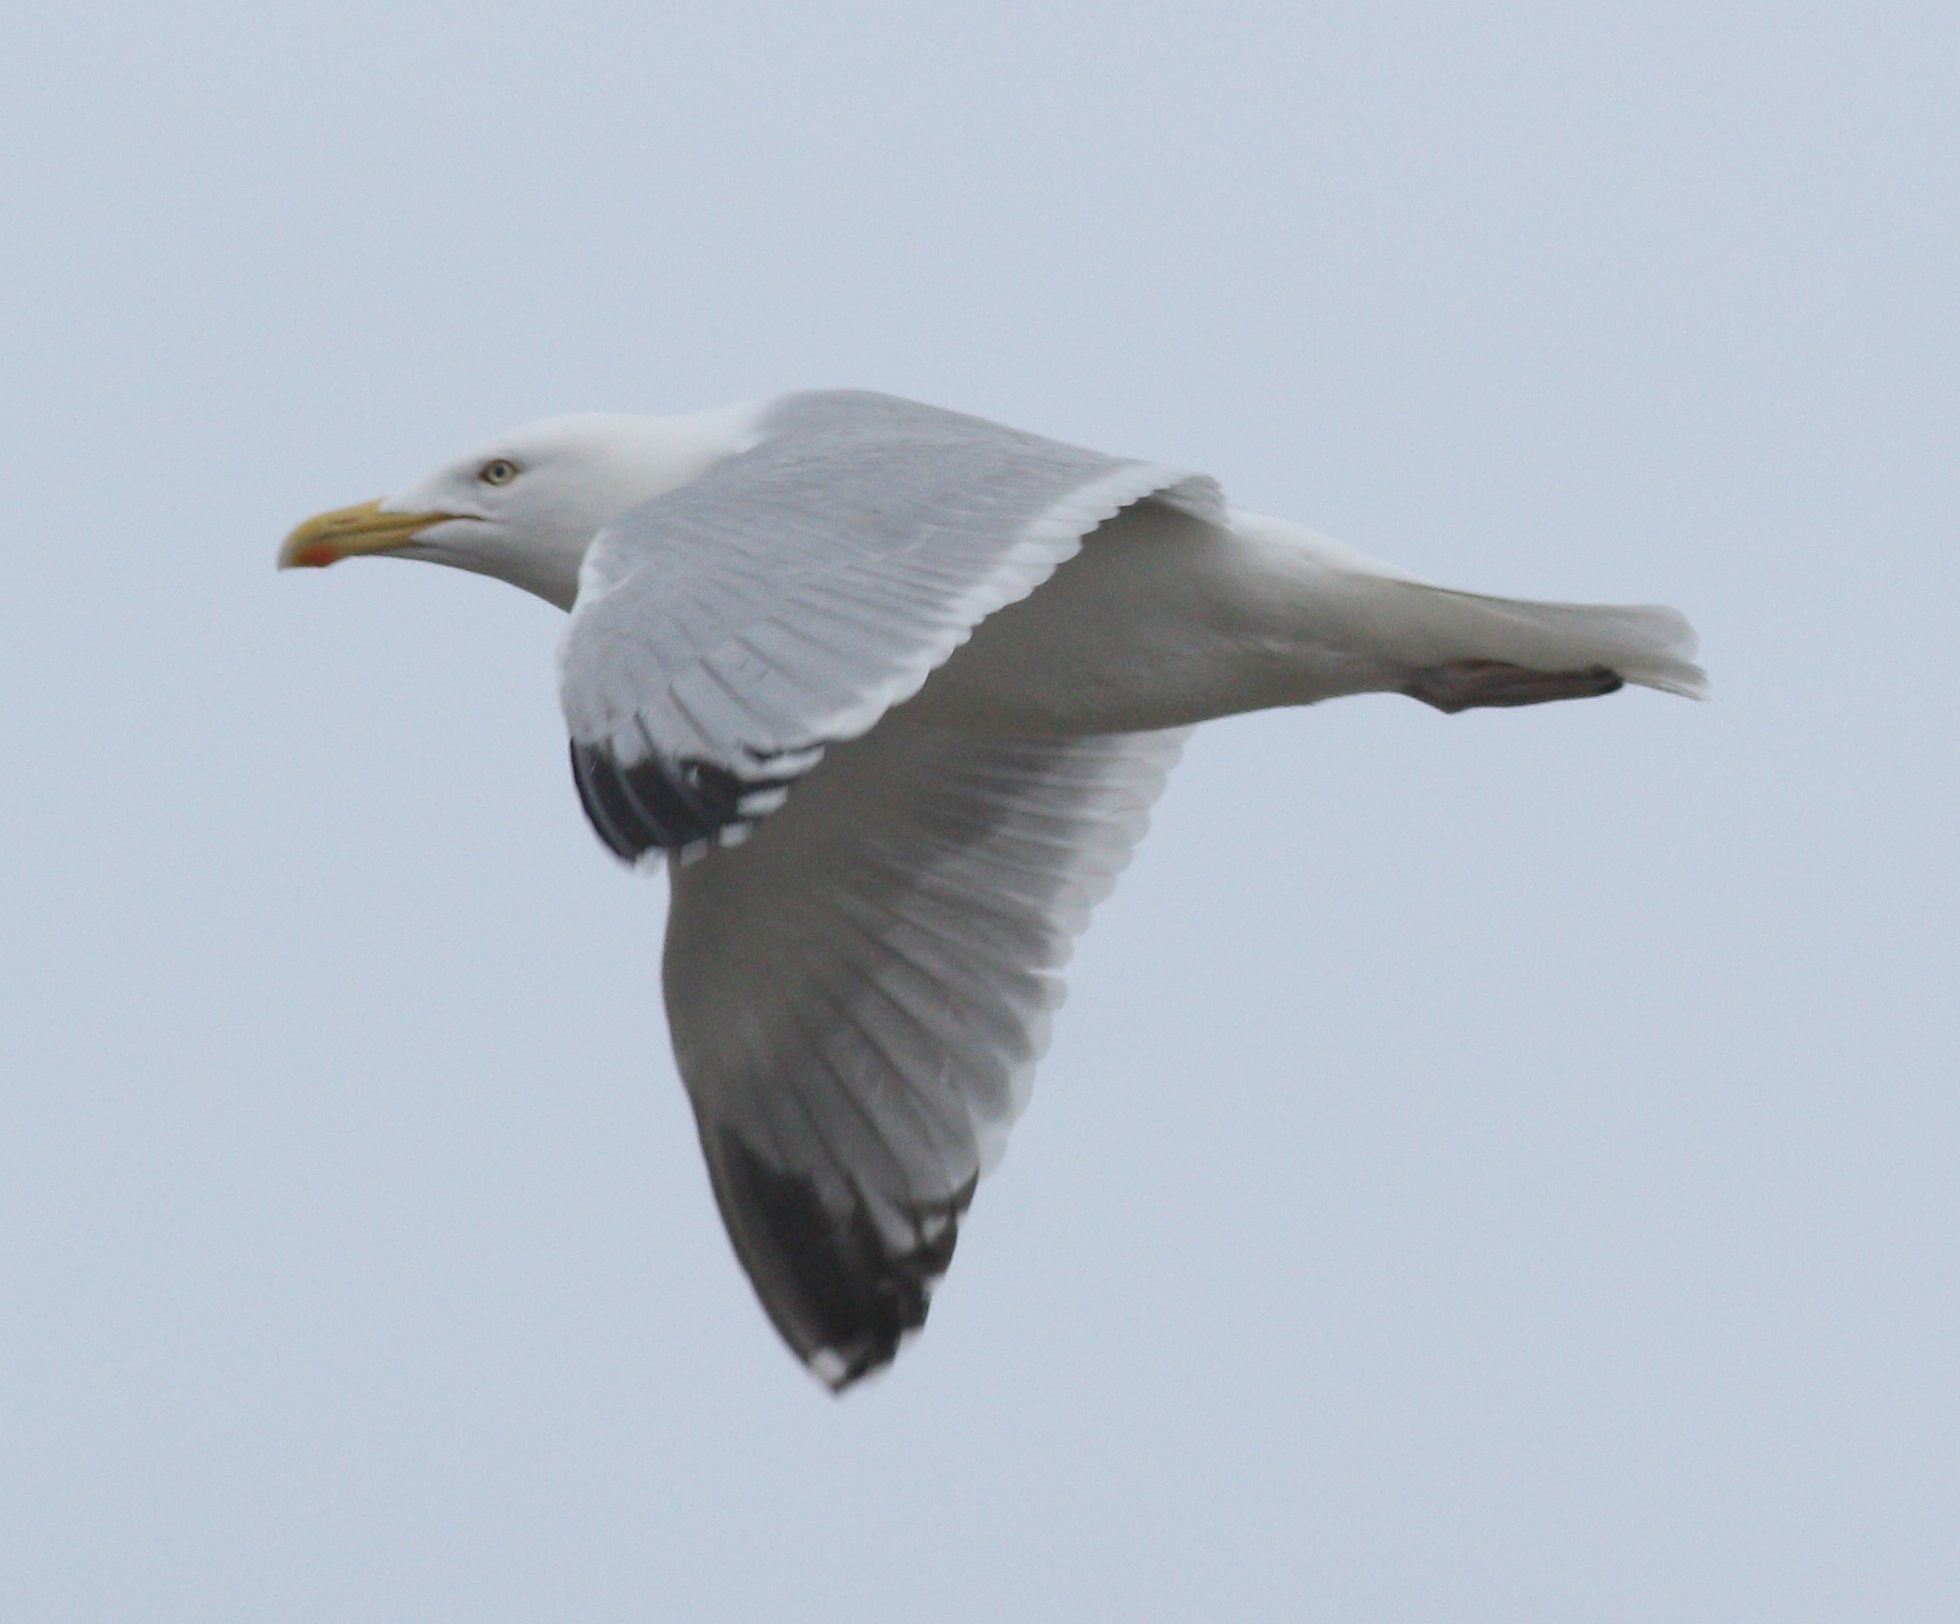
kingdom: Animalia
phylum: Chordata
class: Aves
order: Charadriiformes
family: Laridae
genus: Larus
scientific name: Larus argentatus
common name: Herring gull
